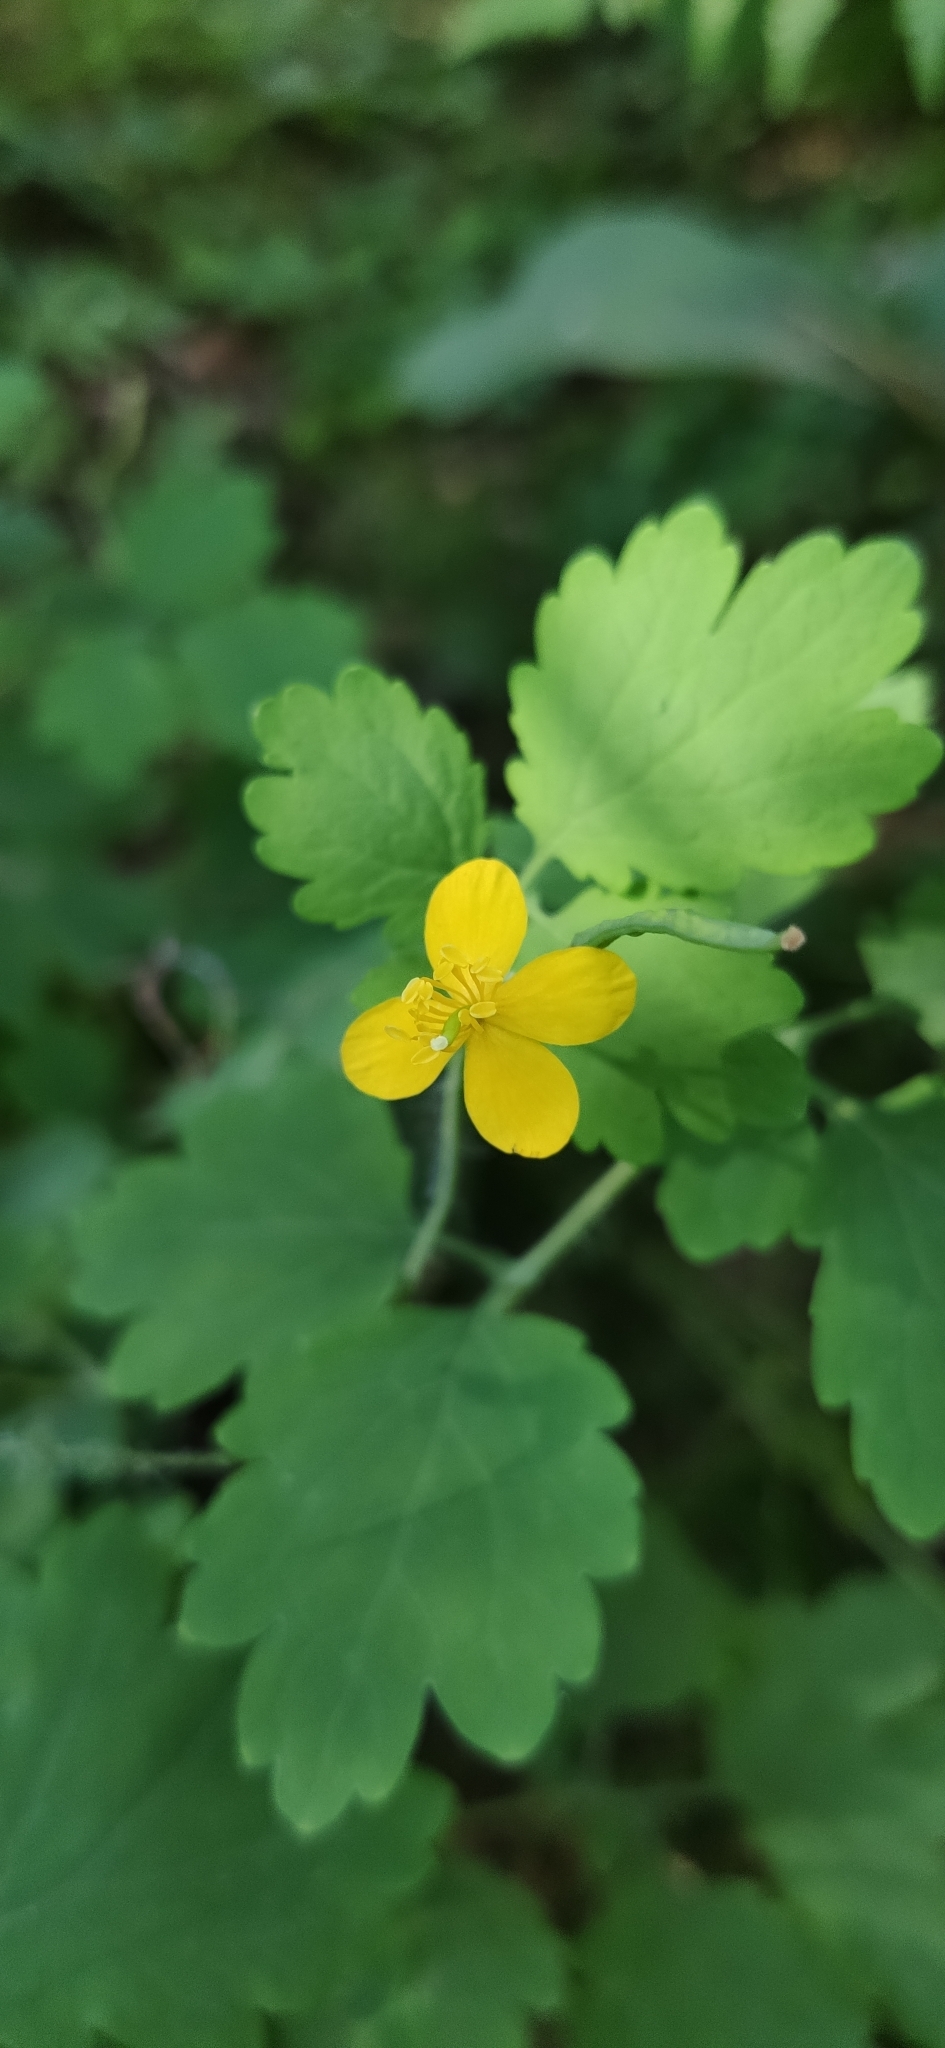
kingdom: Plantae
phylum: Tracheophyta
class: Magnoliopsida
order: Ranunculales
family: Papaveraceae
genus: Chelidonium
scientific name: Chelidonium majus
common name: Greater celandine
